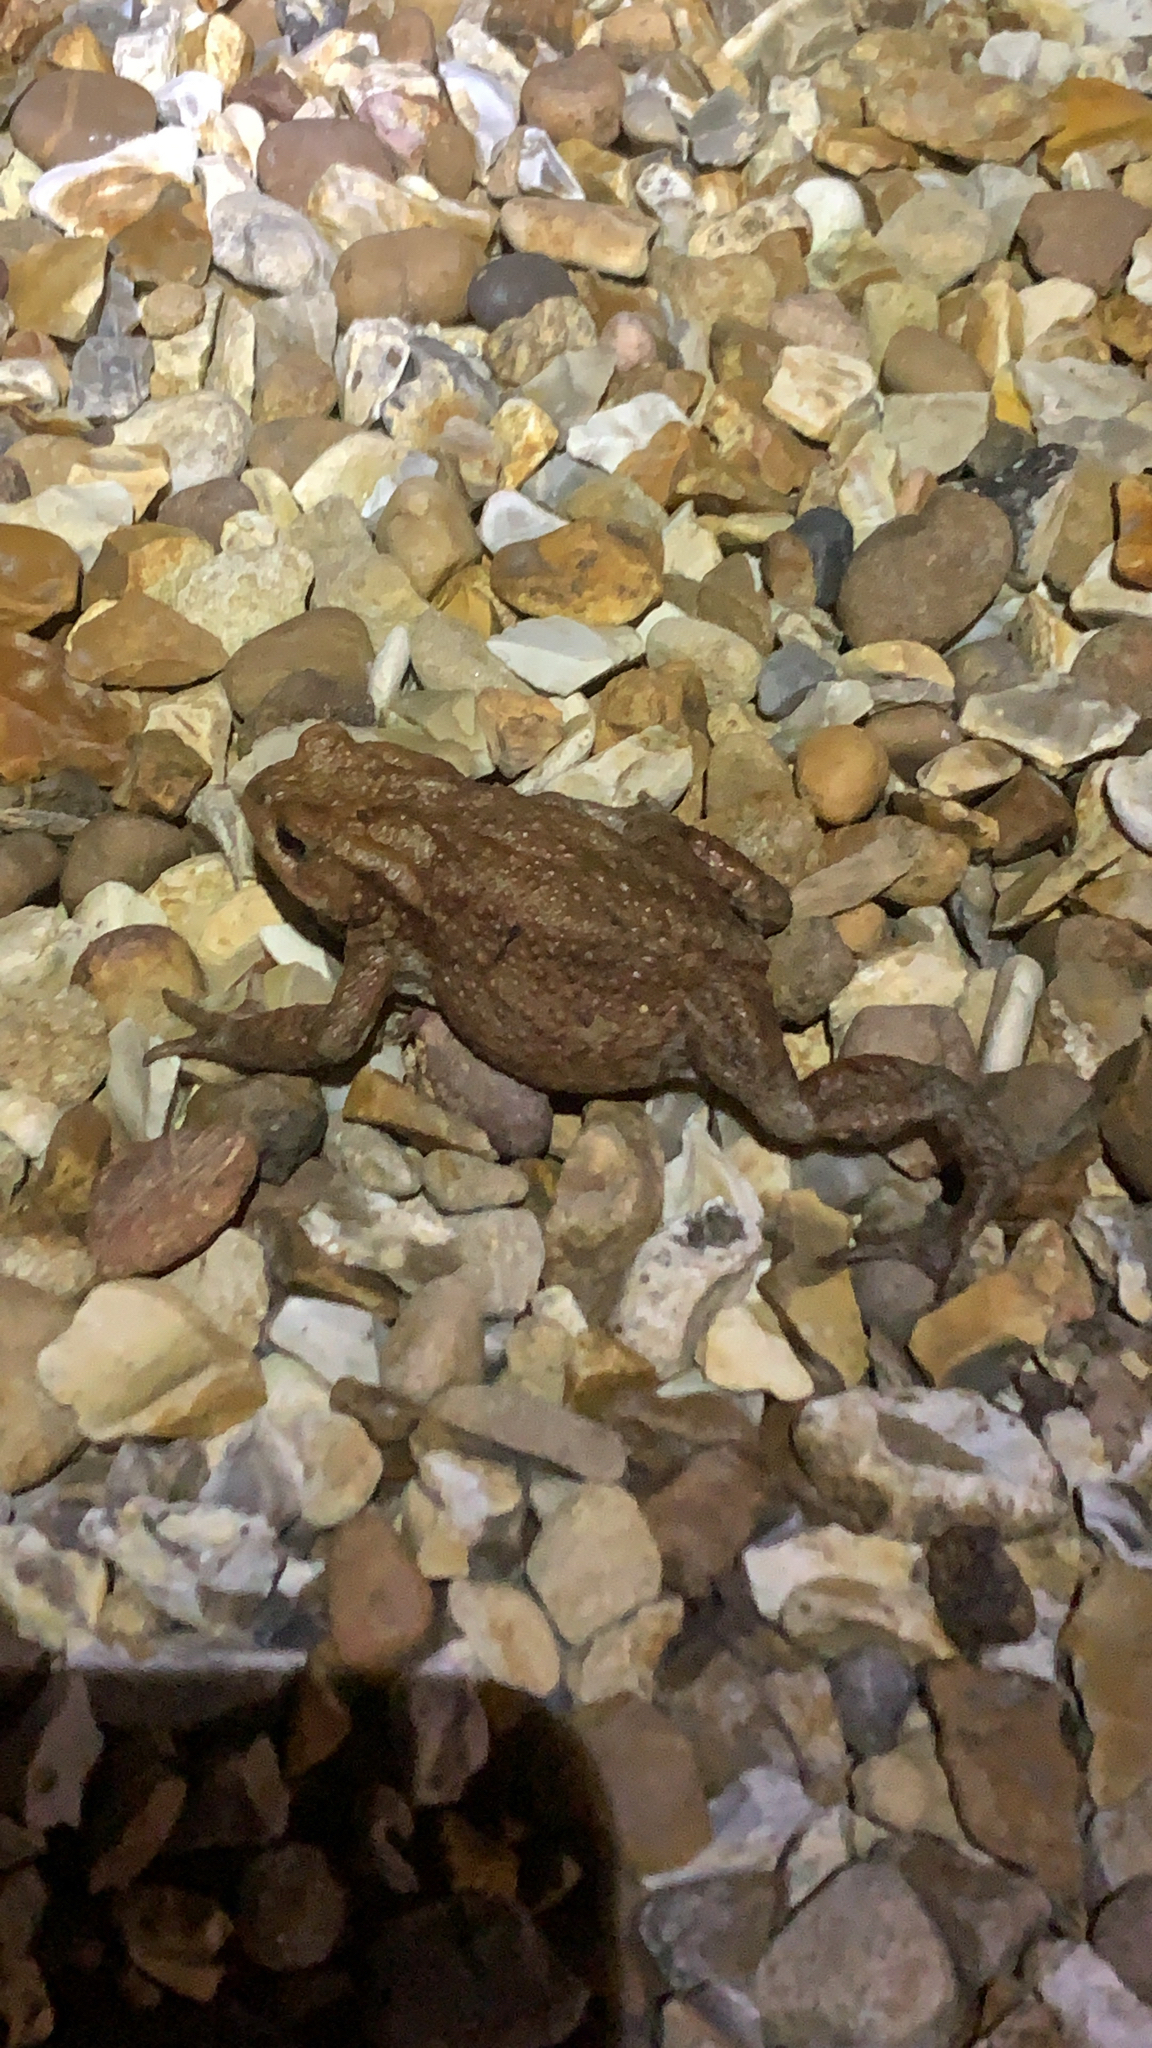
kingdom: Animalia
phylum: Chordata
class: Amphibia
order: Anura
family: Bufonidae
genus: Bufo
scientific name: Bufo bufo
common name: Common toad
